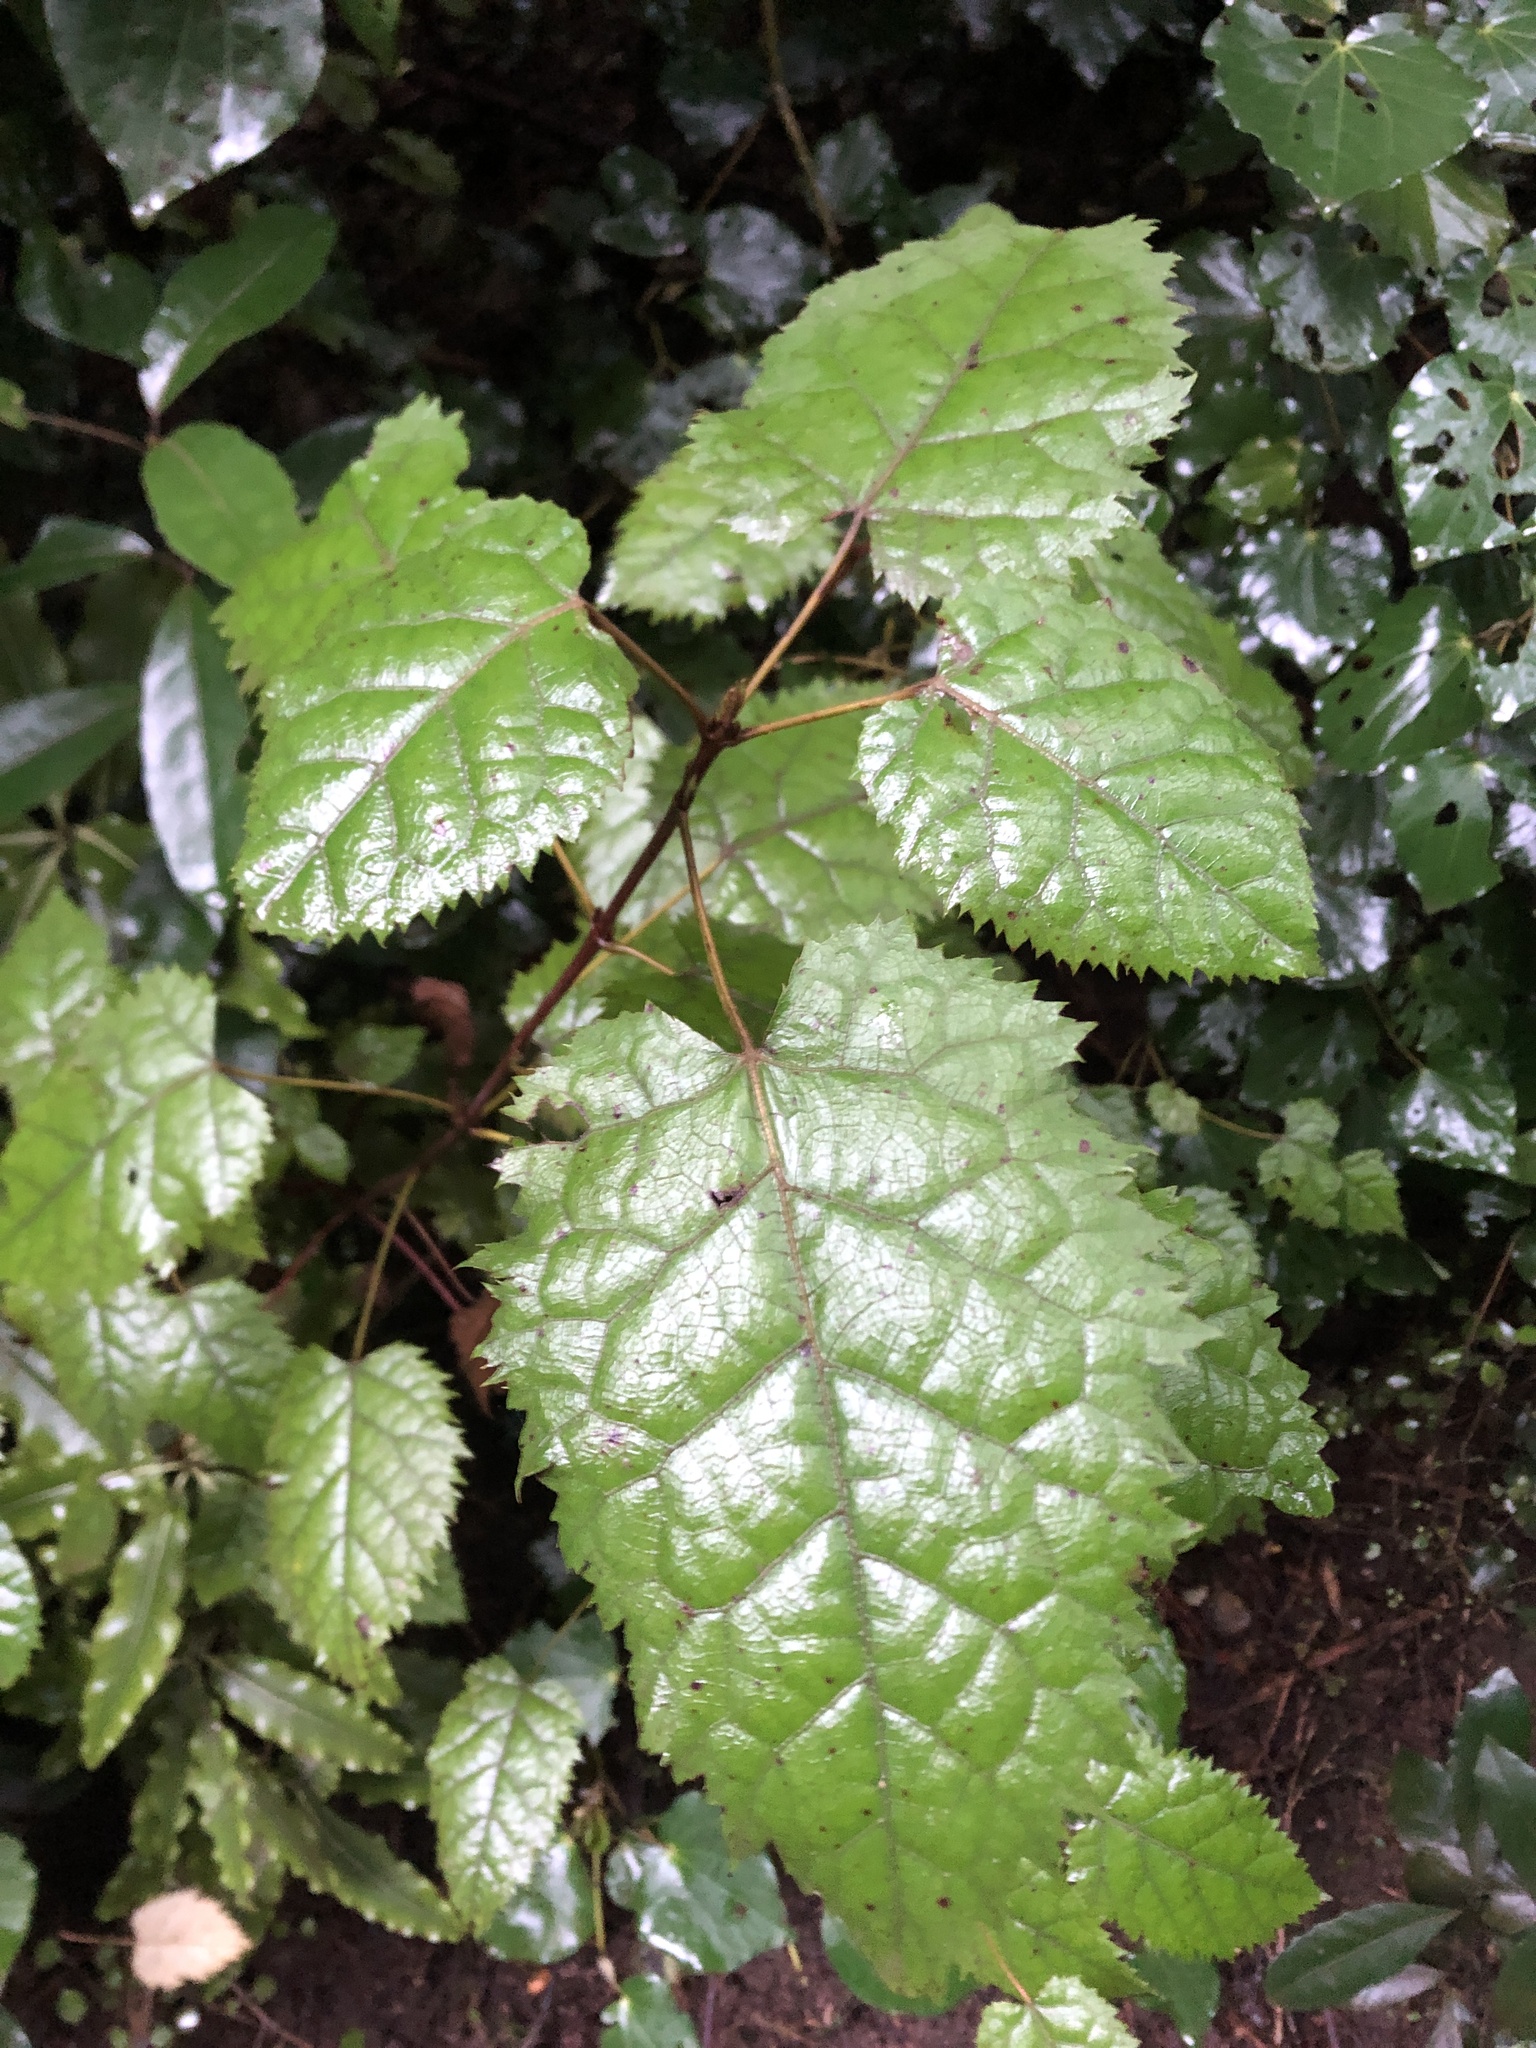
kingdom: Plantae
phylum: Tracheophyta
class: Magnoliopsida
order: Oxalidales
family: Elaeocarpaceae
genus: Aristotelia
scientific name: Aristotelia serrata
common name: New zealand wineberry
